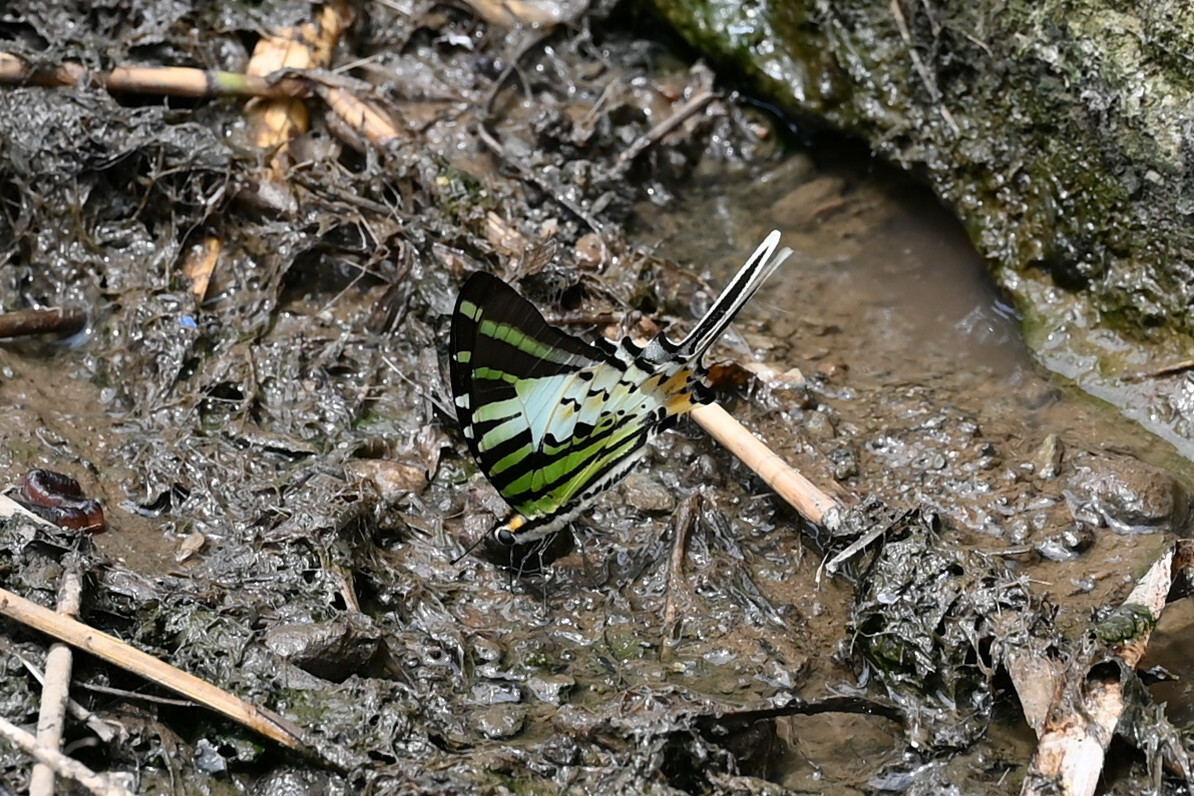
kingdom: Animalia
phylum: Arthropoda
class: Insecta
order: Lepidoptera
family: Papilionidae
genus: Graphium
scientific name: Graphium antiphates
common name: Fivebar swordtail
